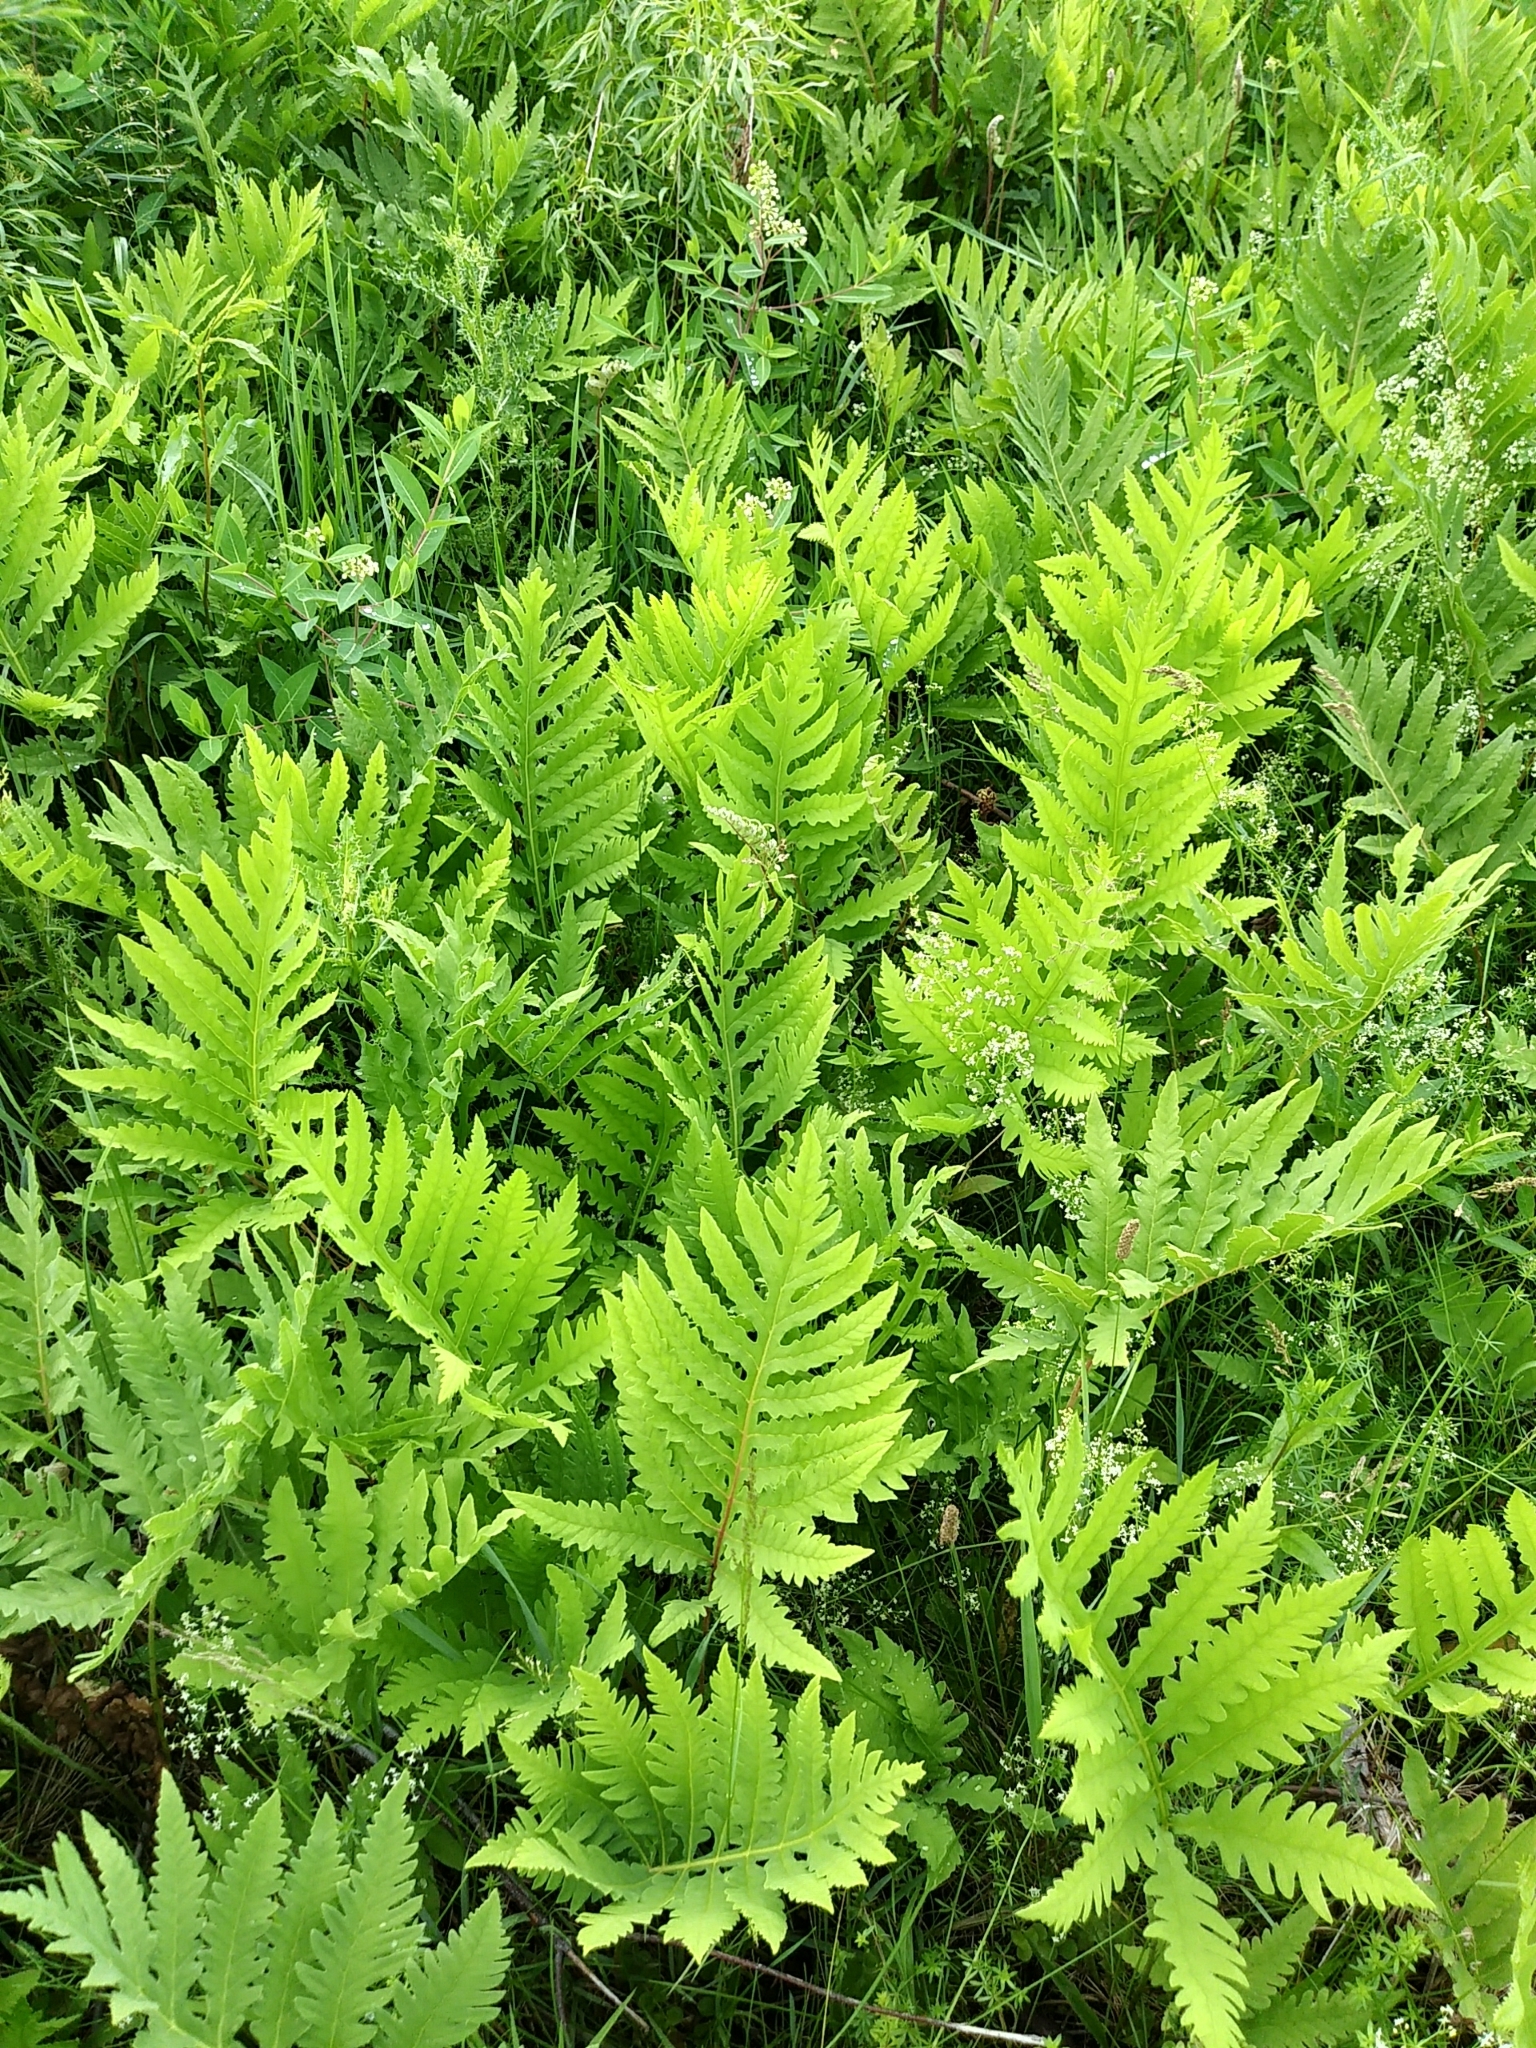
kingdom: Plantae
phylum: Tracheophyta
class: Polypodiopsida
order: Polypodiales
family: Onocleaceae
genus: Onoclea
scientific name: Onoclea sensibilis
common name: Sensitive fern
